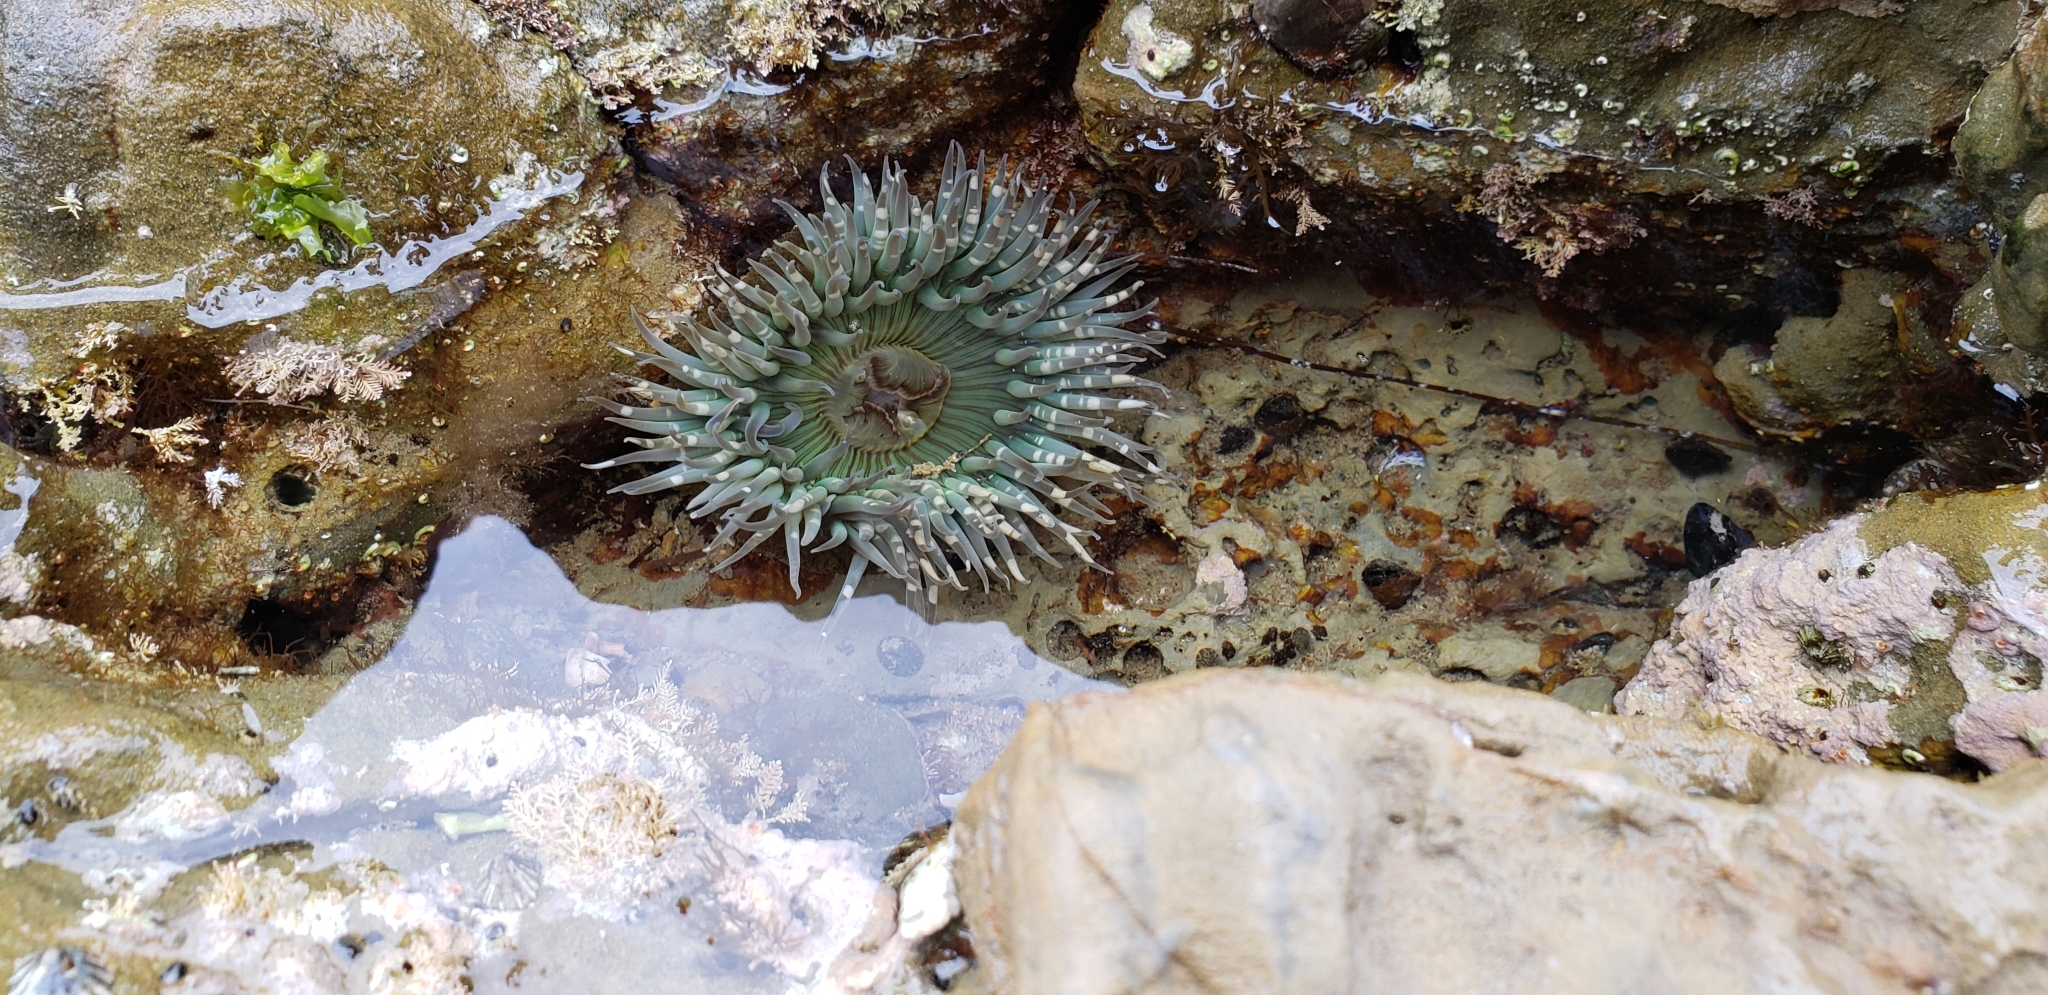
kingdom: Animalia
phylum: Cnidaria
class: Anthozoa
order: Actiniaria
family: Actiniidae
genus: Anthopleura
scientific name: Anthopleura sola
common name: Sun anemone
